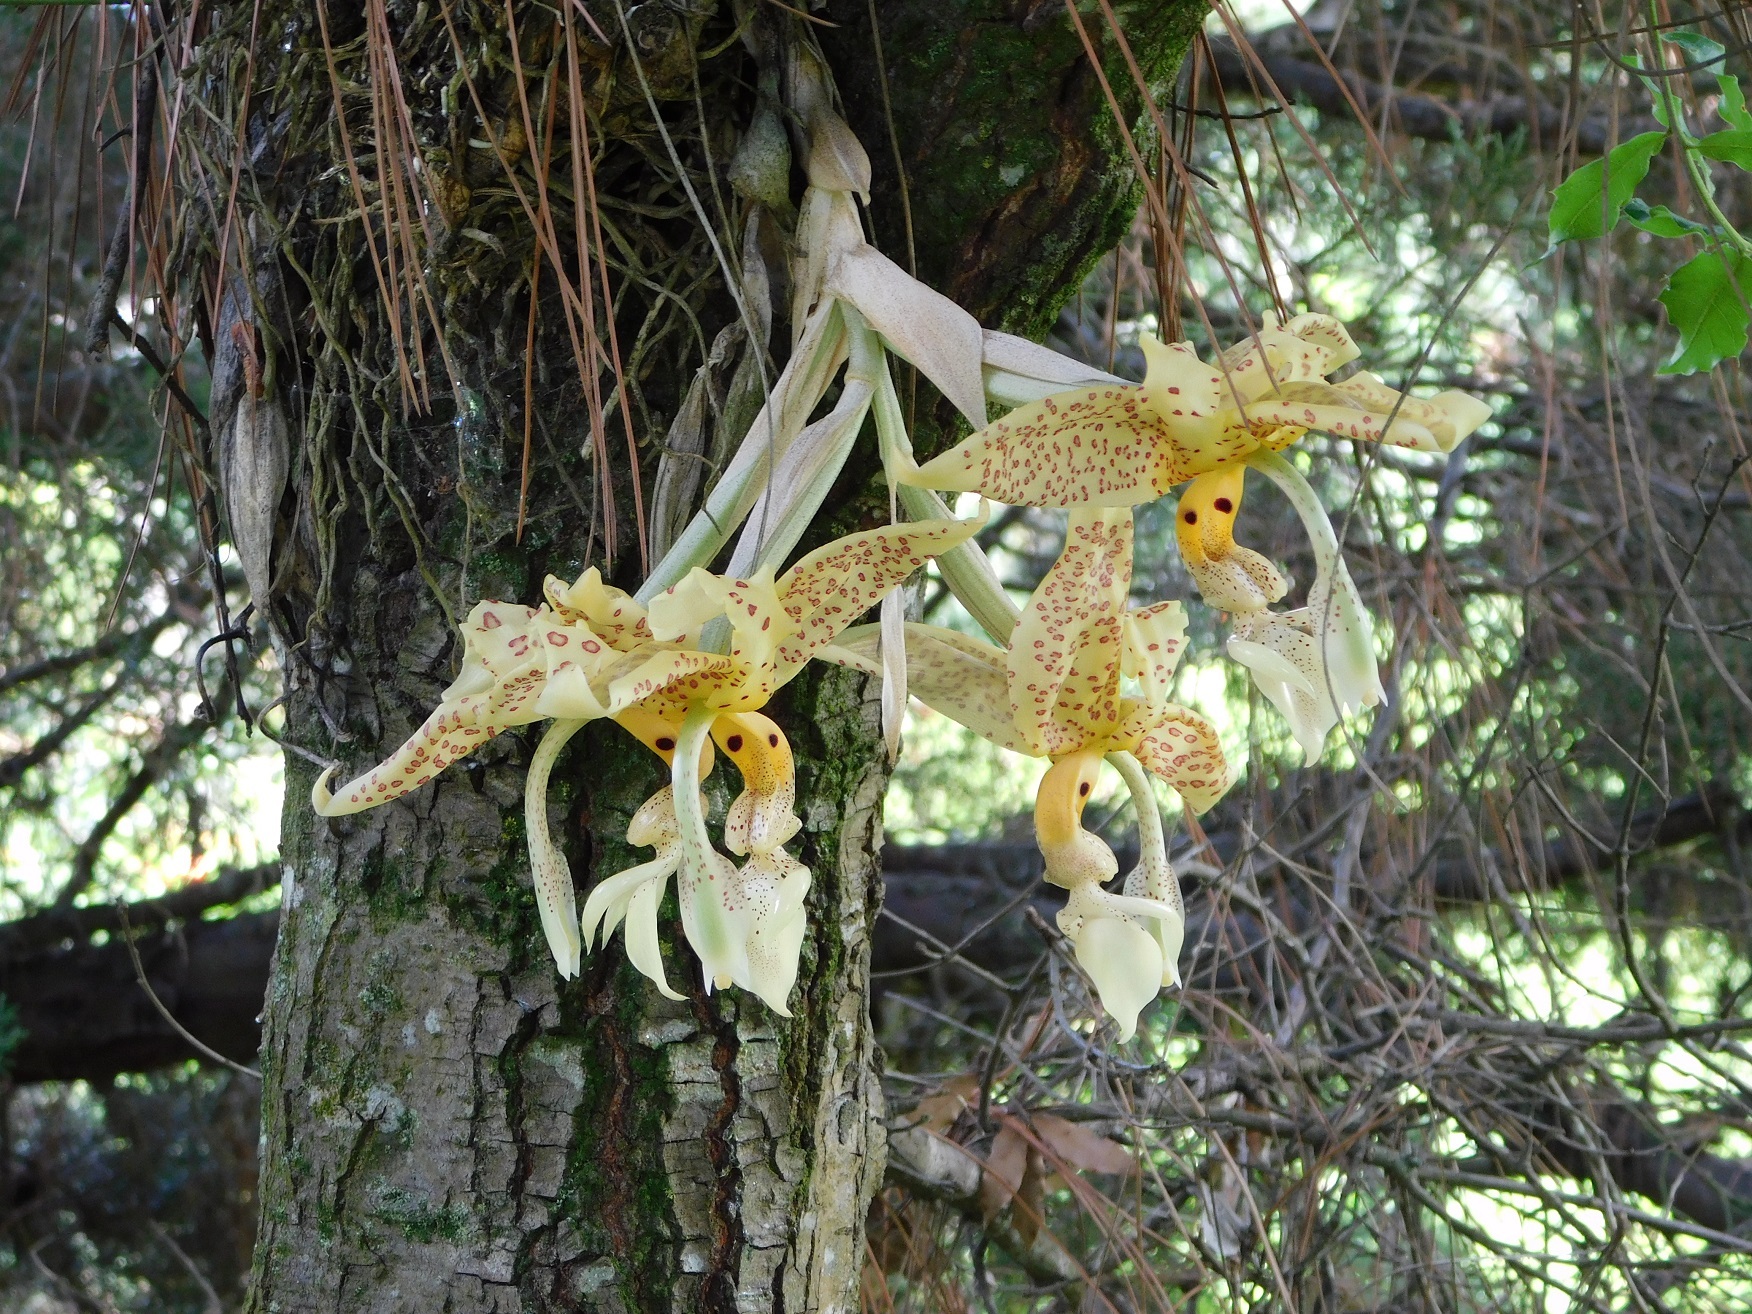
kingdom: Plantae
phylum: Tracheophyta
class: Liliopsida
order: Asparagales
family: Orchidaceae
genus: Stanhopea
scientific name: Stanhopea oculata
